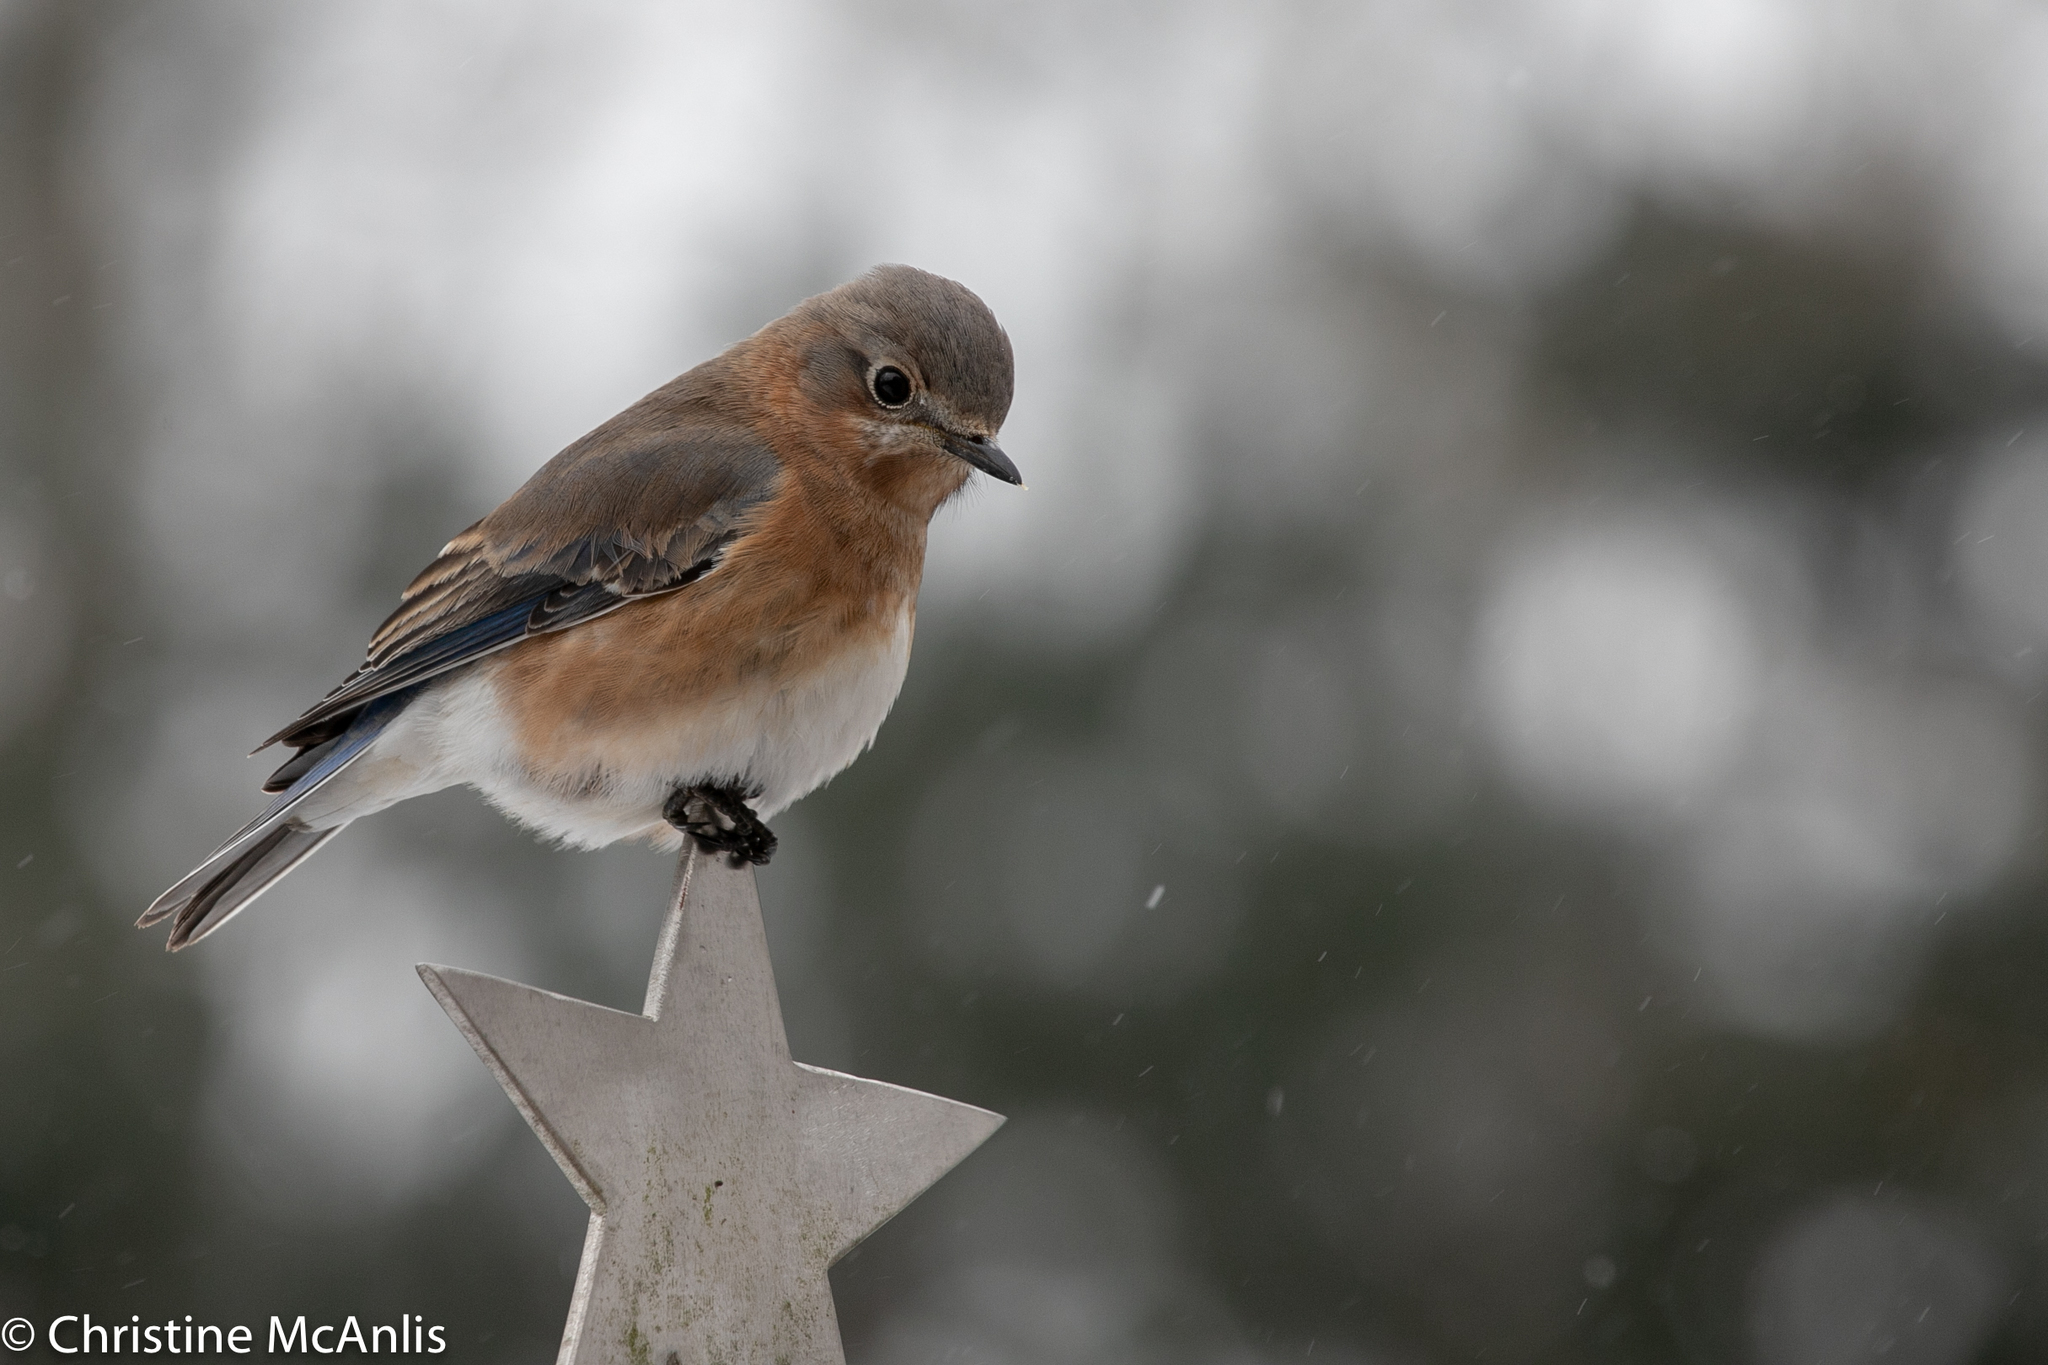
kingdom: Animalia
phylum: Chordata
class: Aves
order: Passeriformes
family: Turdidae
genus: Sialia
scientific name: Sialia sialis
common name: Eastern bluebird
